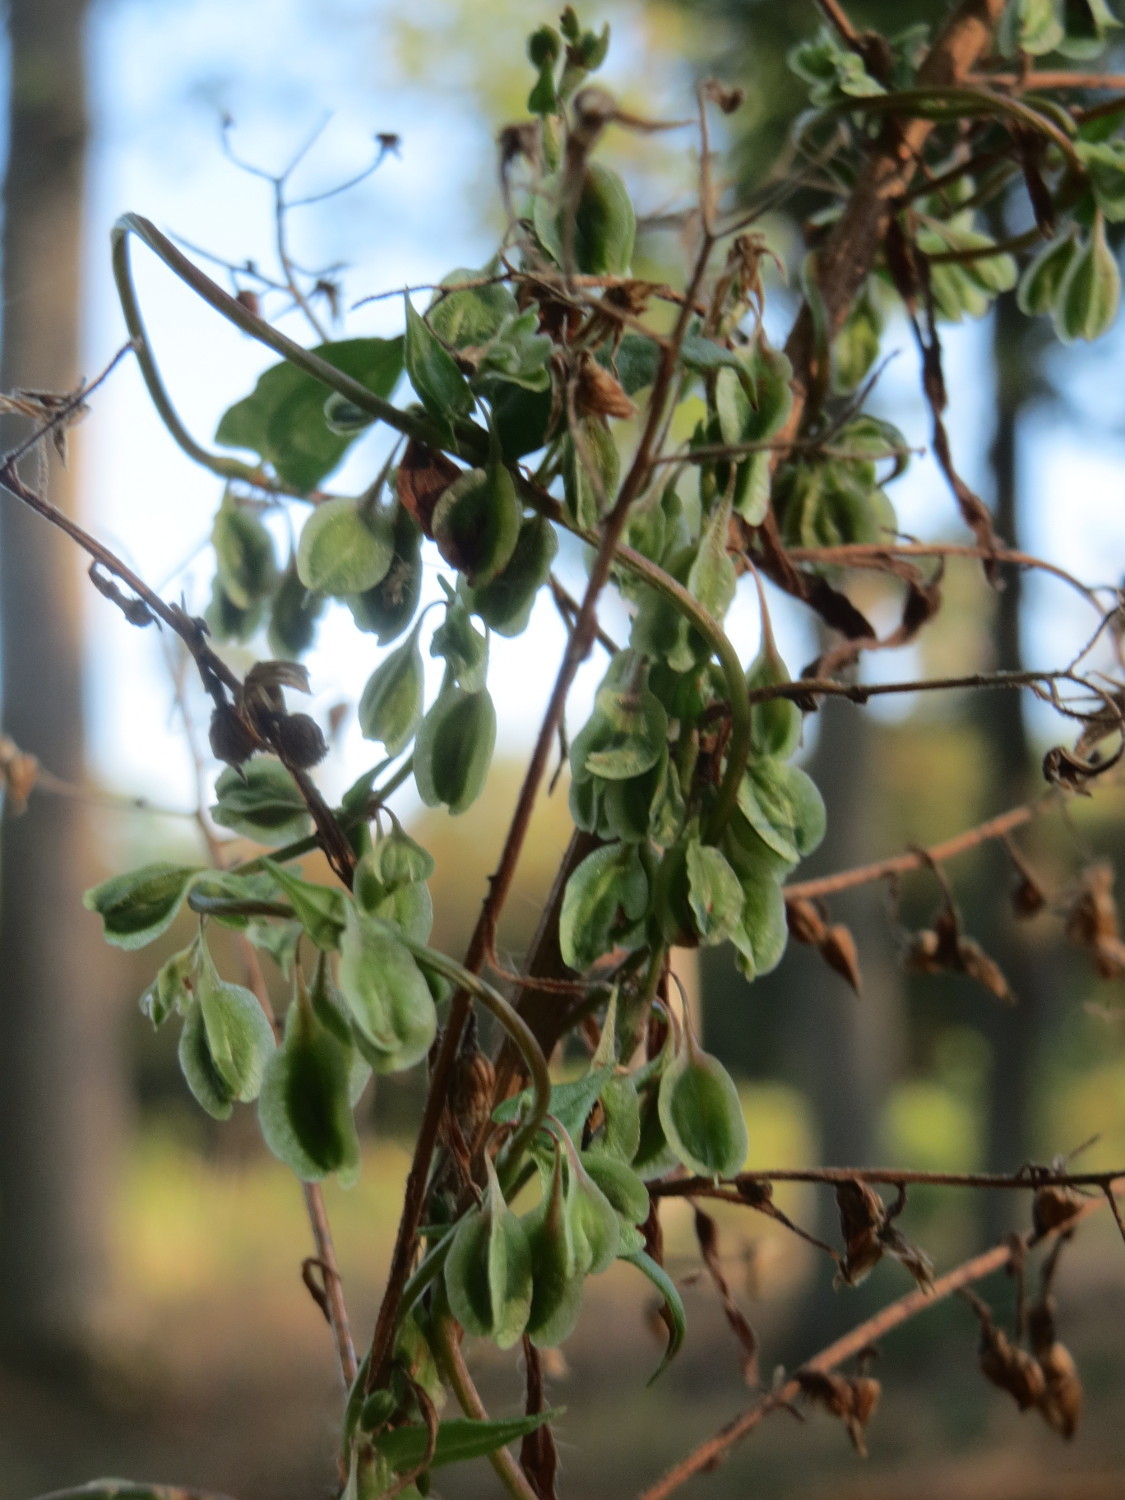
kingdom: Plantae
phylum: Tracheophyta
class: Magnoliopsida
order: Caryophyllales
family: Polygonaceae
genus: Fallopia
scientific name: Fallopia dumetorum
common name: Copse-bindweed
